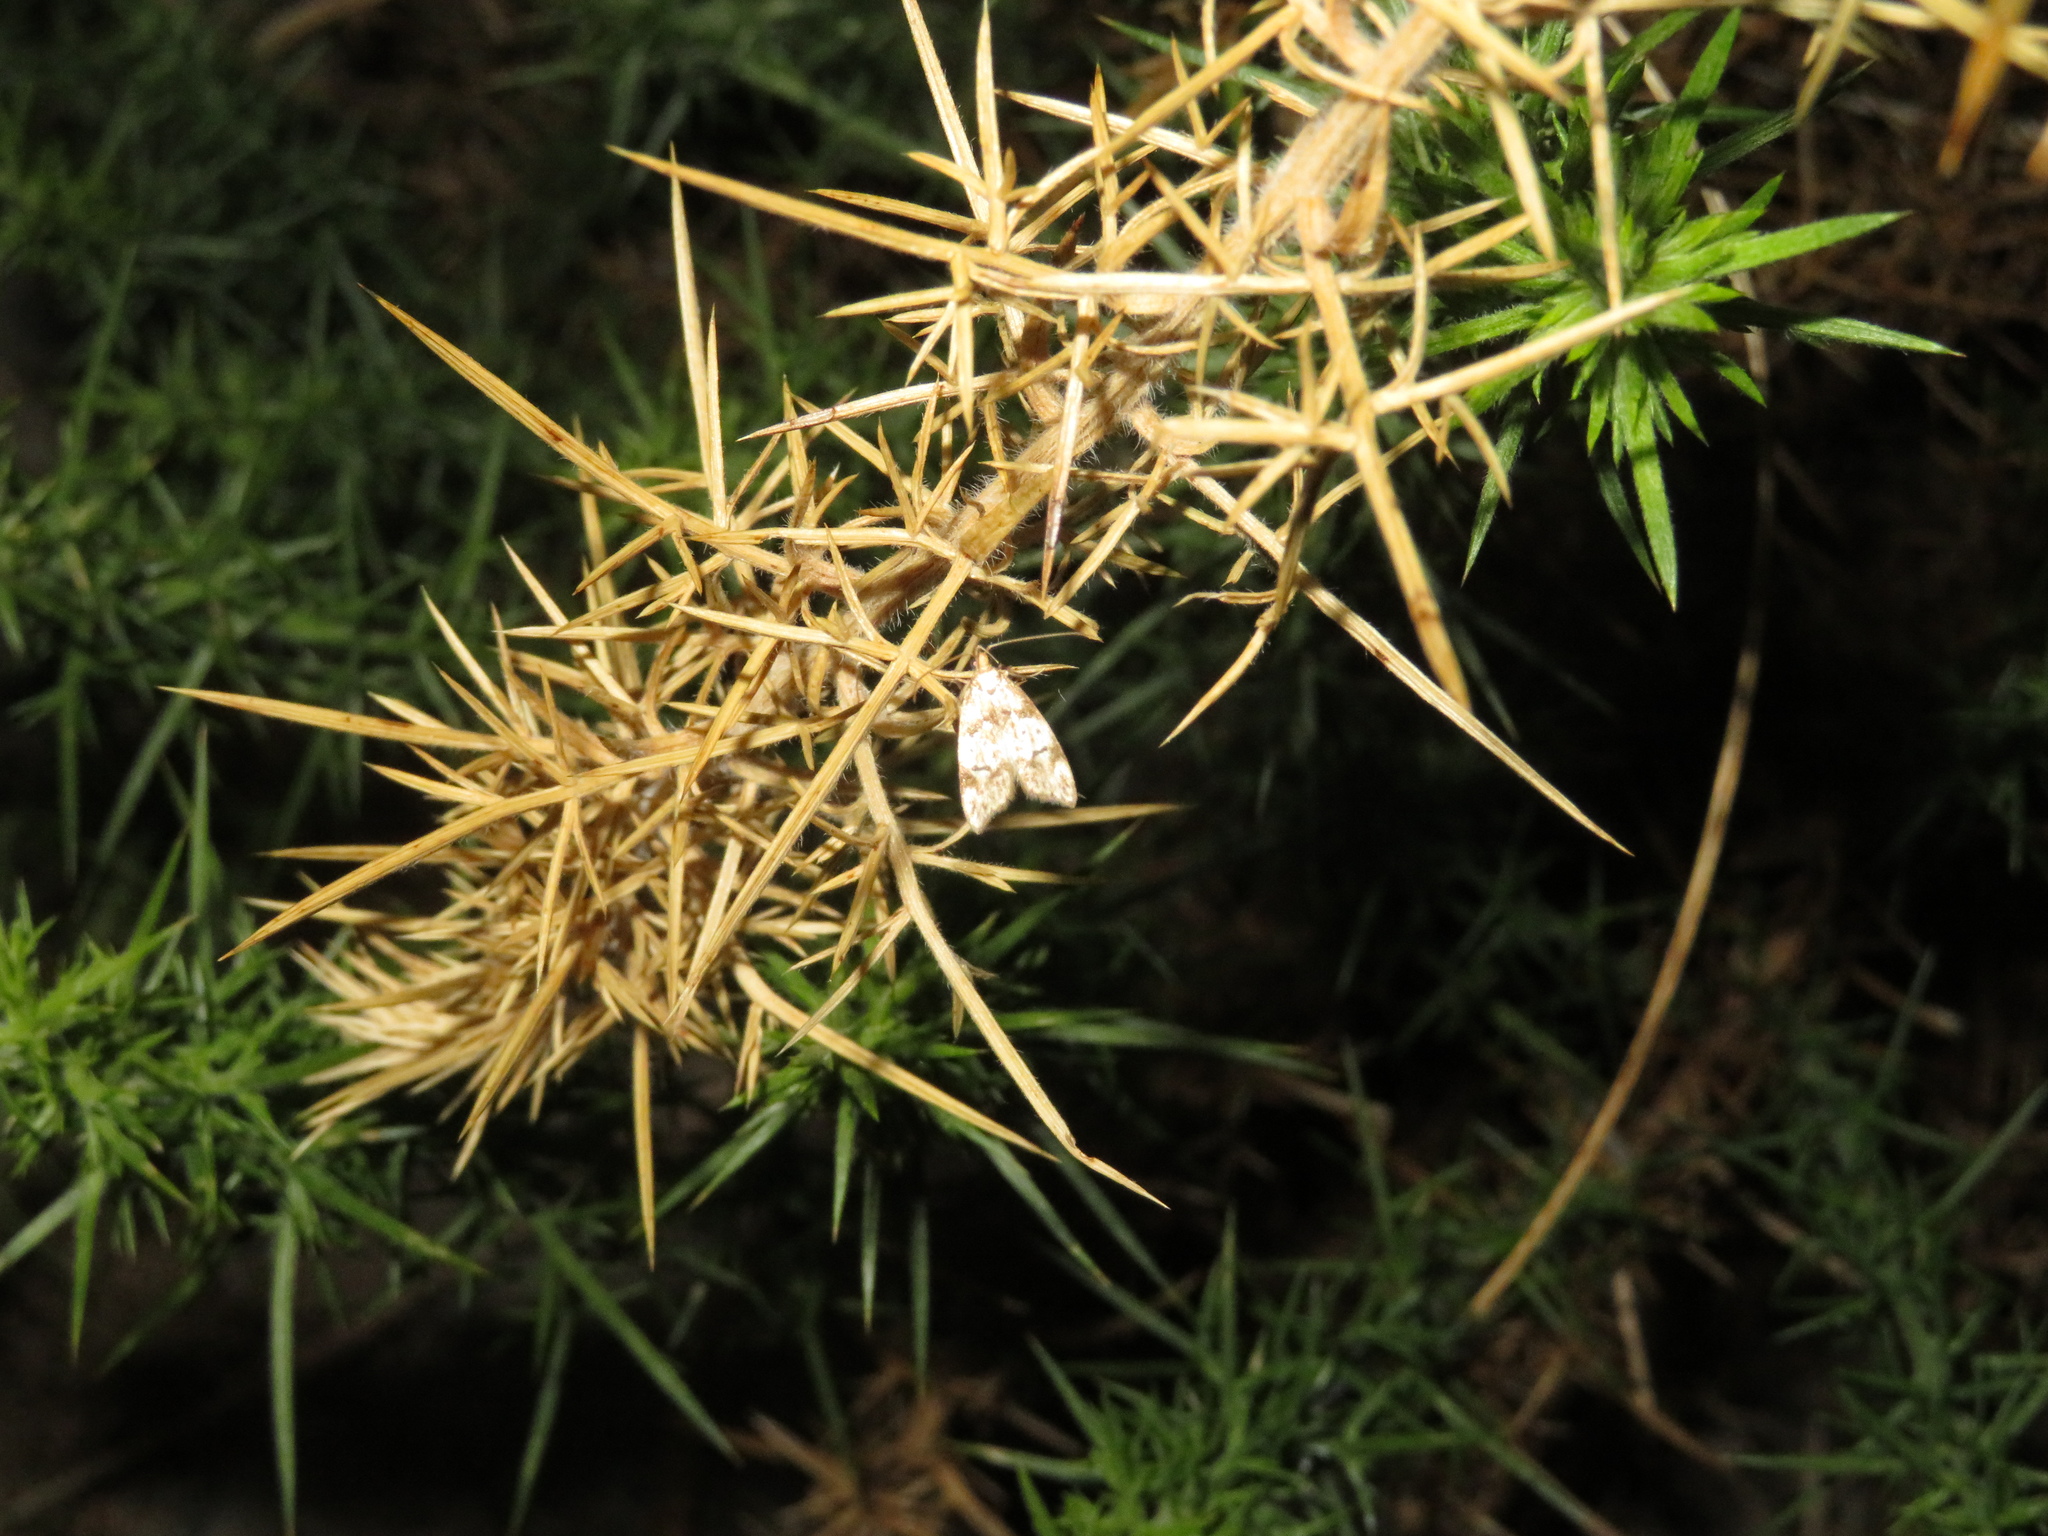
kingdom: Animalia
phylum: Arthropoda
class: Insecta
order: Lepidoptera
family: Oecophoridae
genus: Gymnobathra
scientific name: Gymnobathra hamatella
